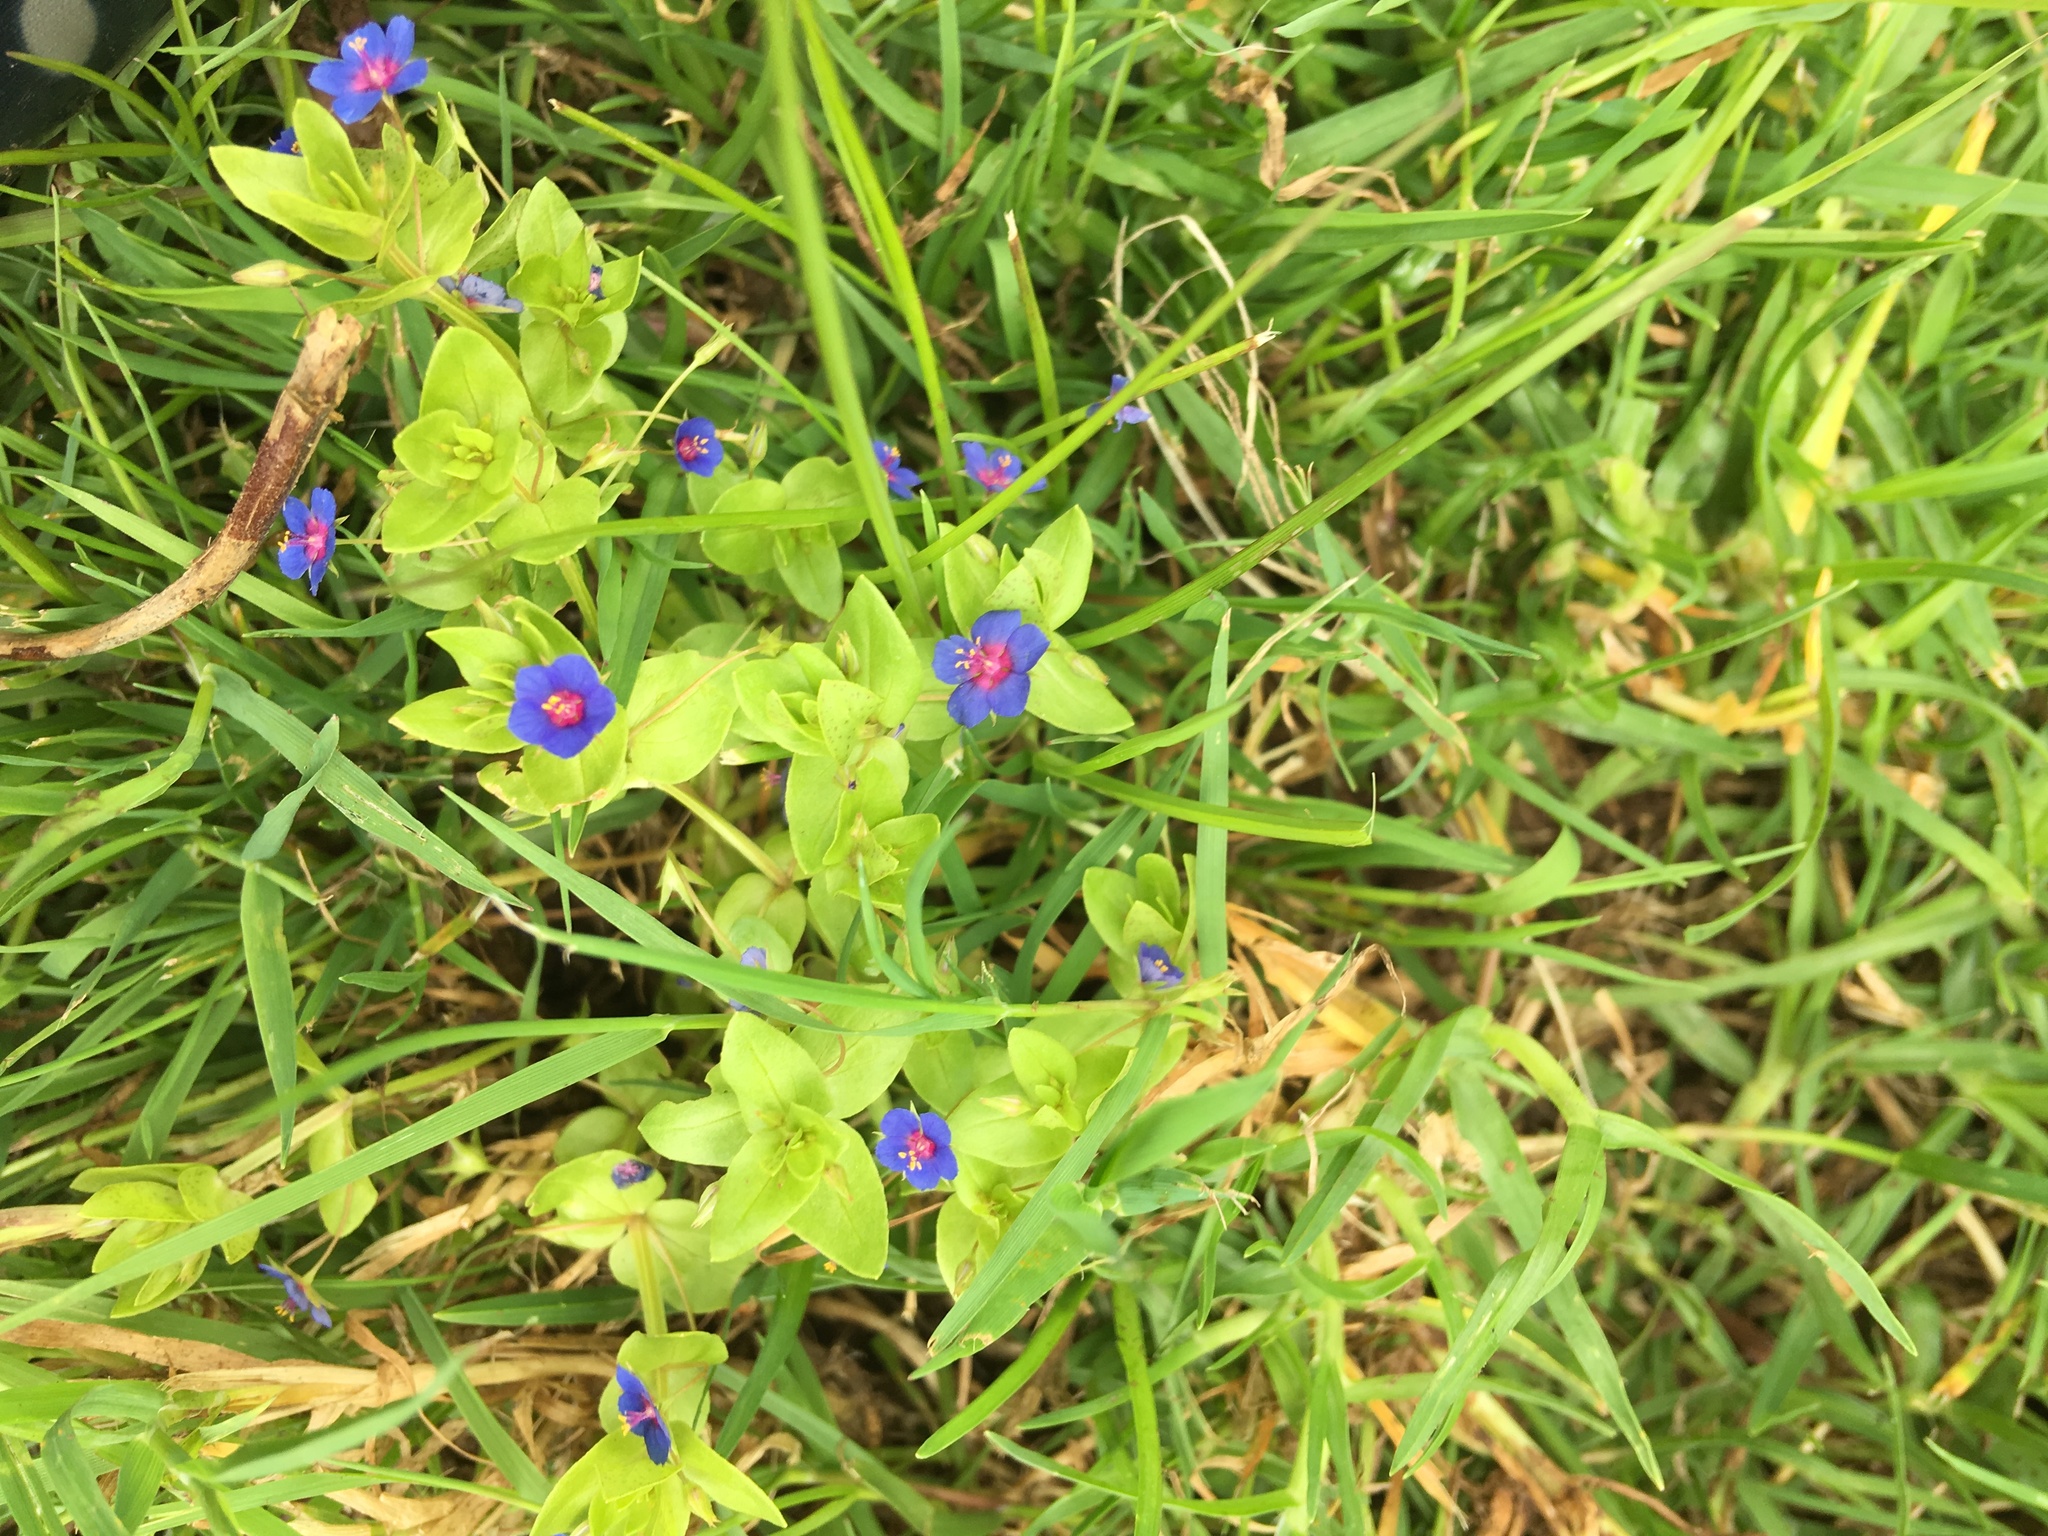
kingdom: Plantae
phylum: Tracheophyta
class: Magnoliopsida
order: Ericales
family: Primulaceae
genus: Lysimachia
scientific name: Lysimachia loeflingii
